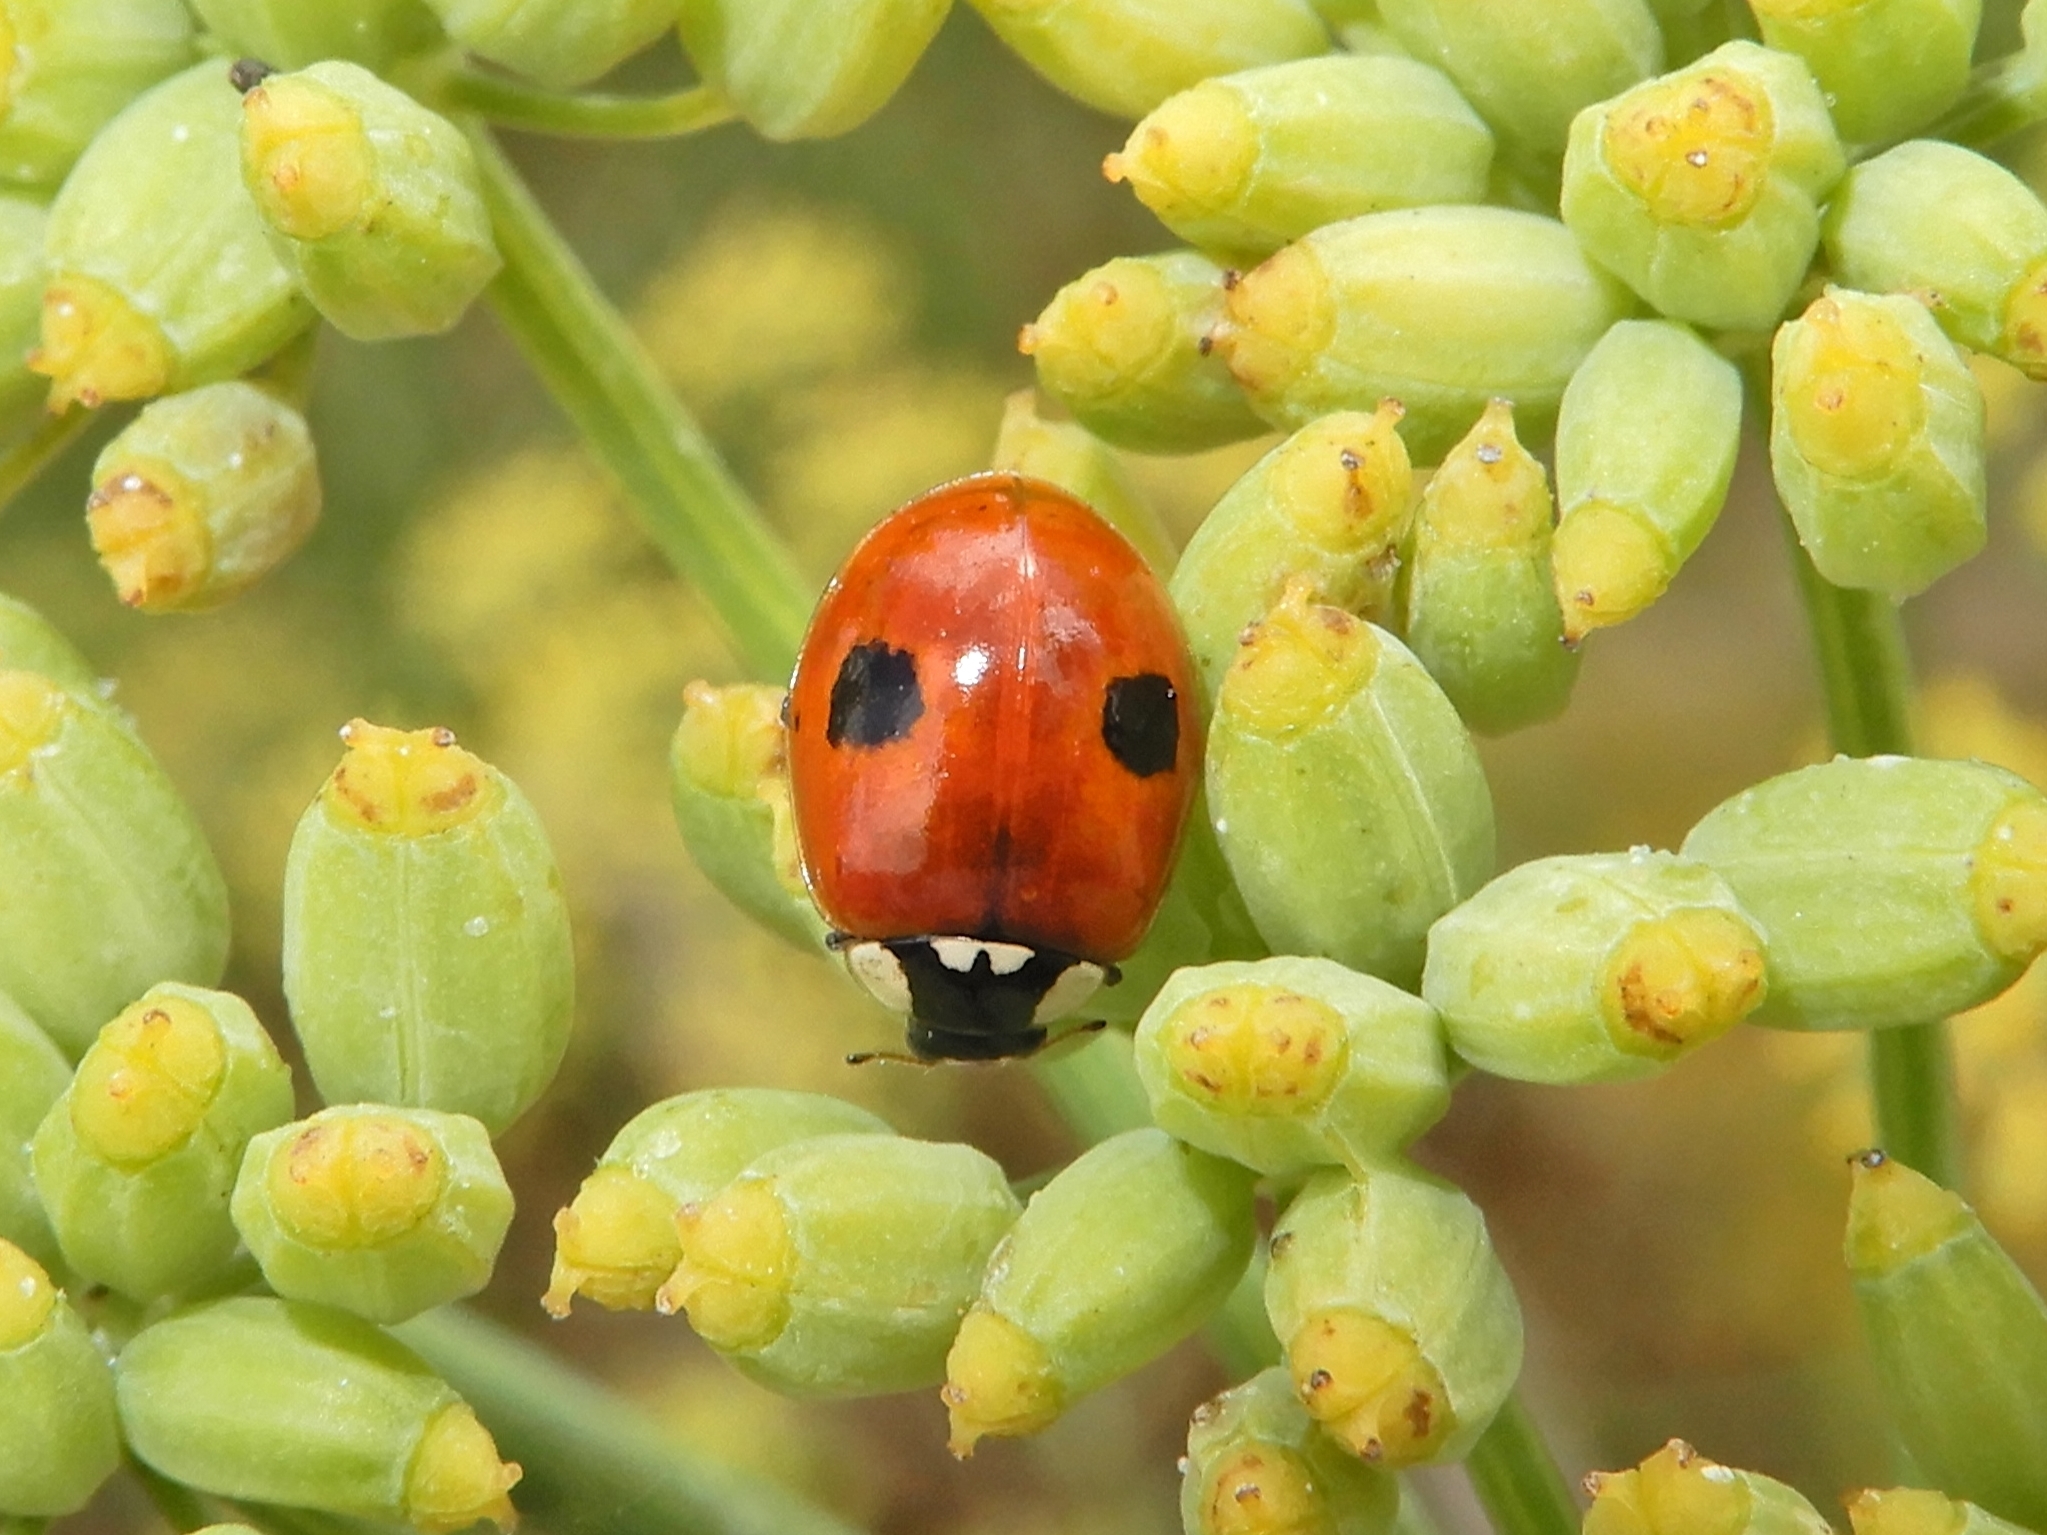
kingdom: Animalia
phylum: Arthropoda
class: Insecta
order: Coleoptera
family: Coccinellidae
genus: Adalia
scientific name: Adalia bipunctata
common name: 2-spot ladybird
